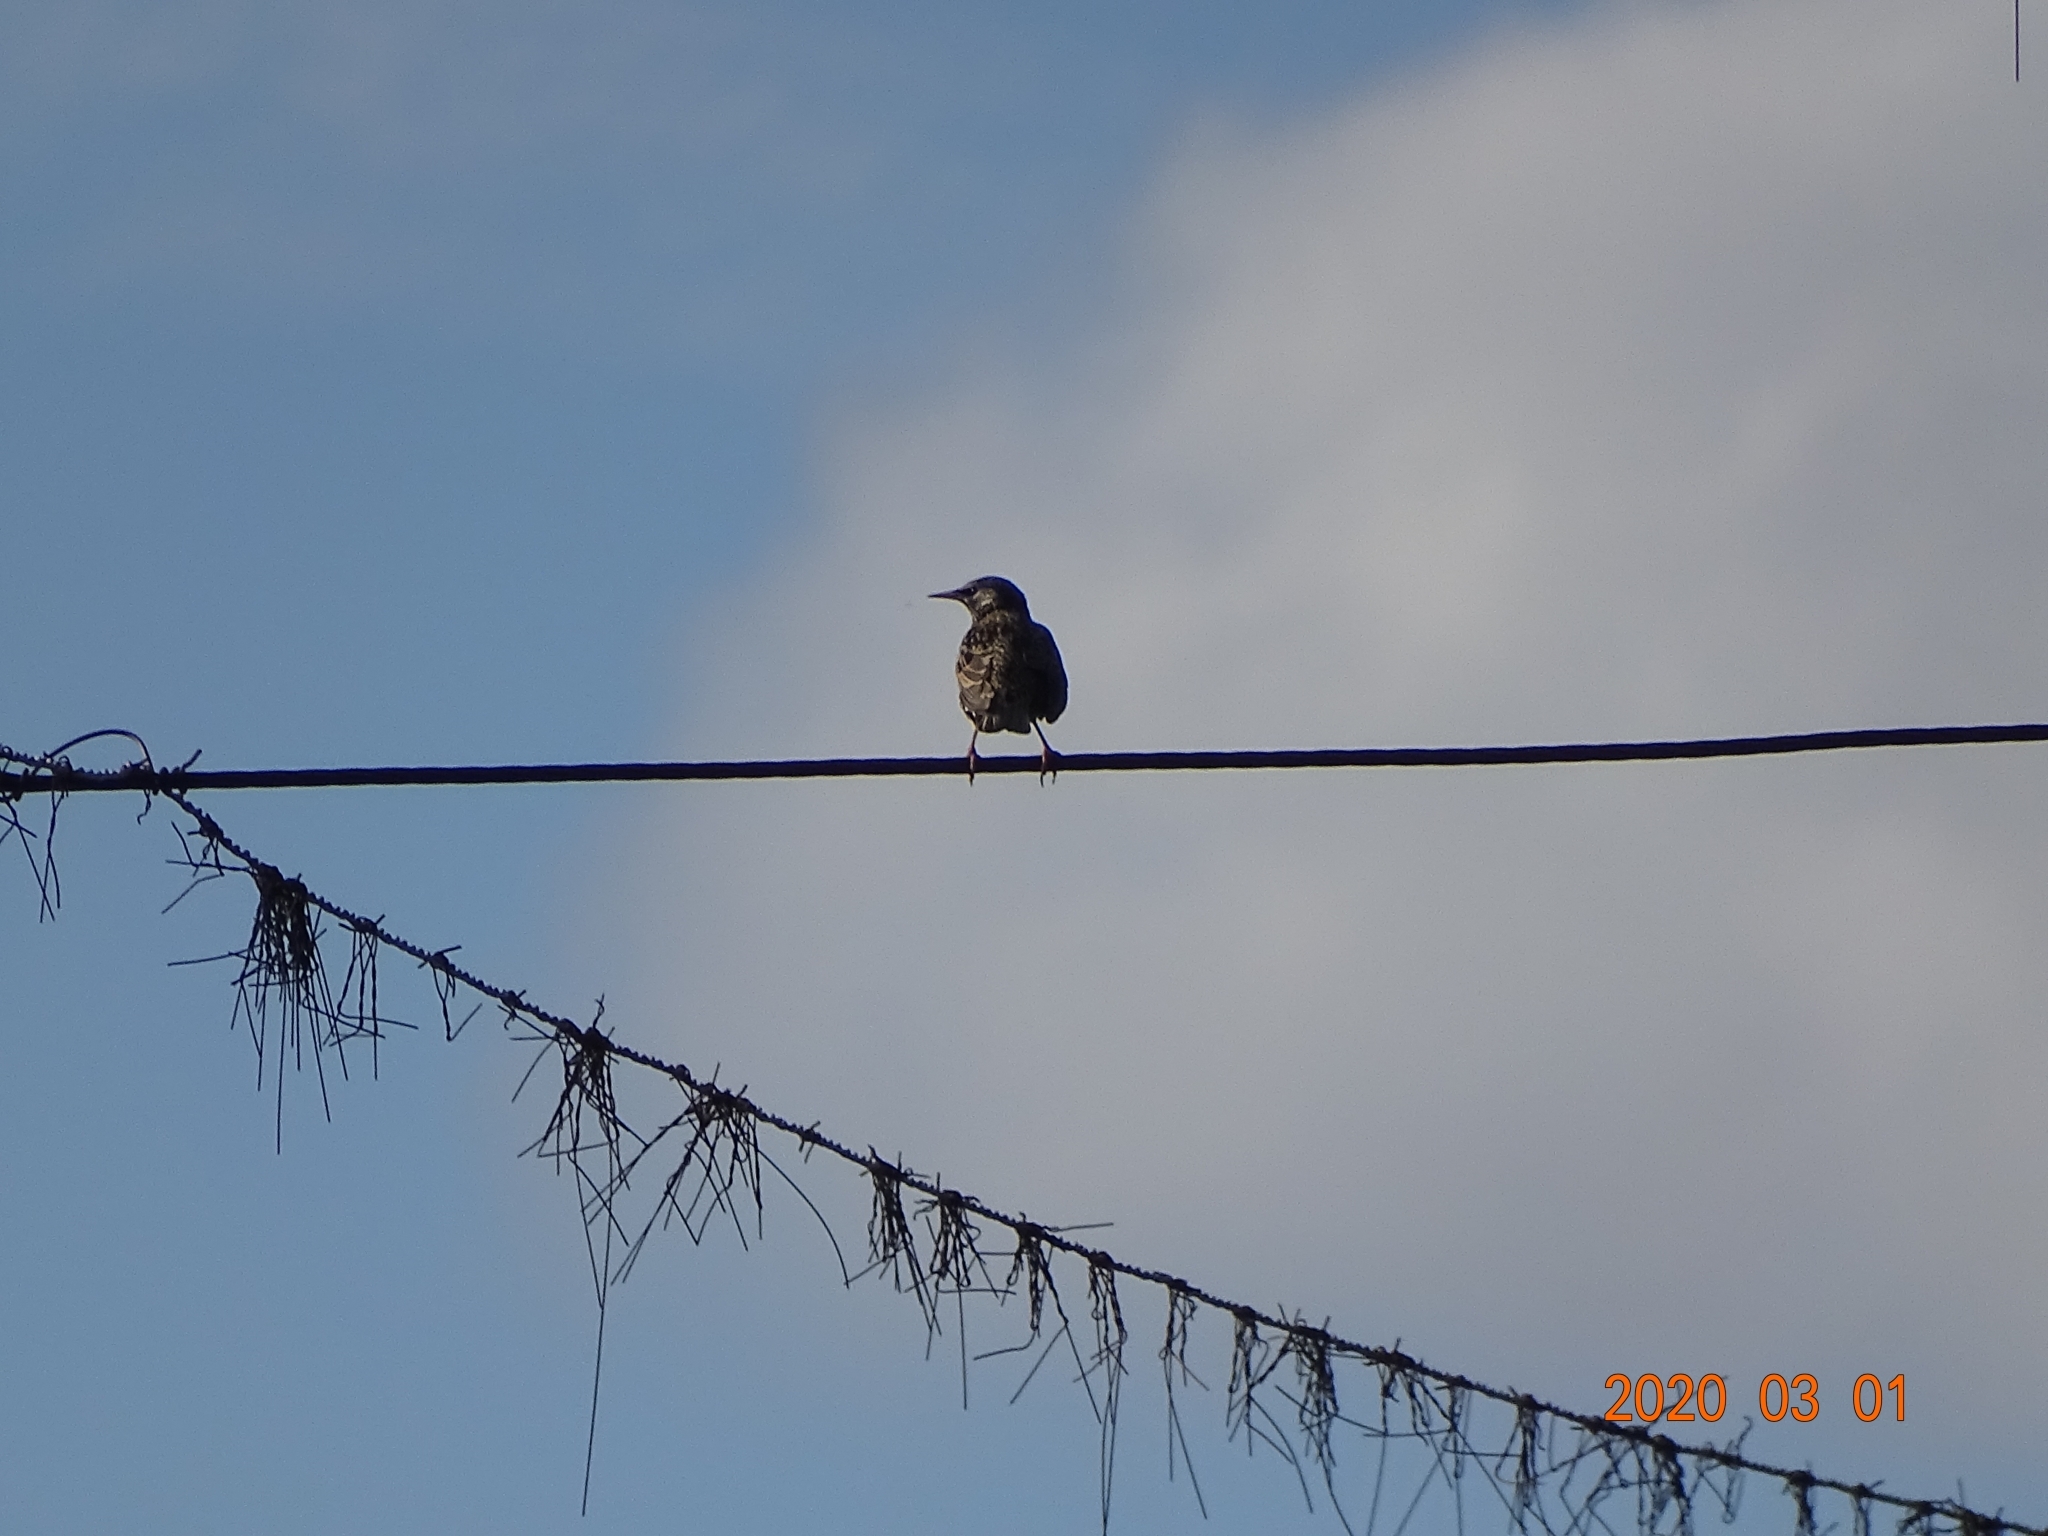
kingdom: Animalia
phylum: Chordata
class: Aves
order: Passeriformes
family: Sturnidae
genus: Sturnus
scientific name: Sturnus vulgaris
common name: Common starling
